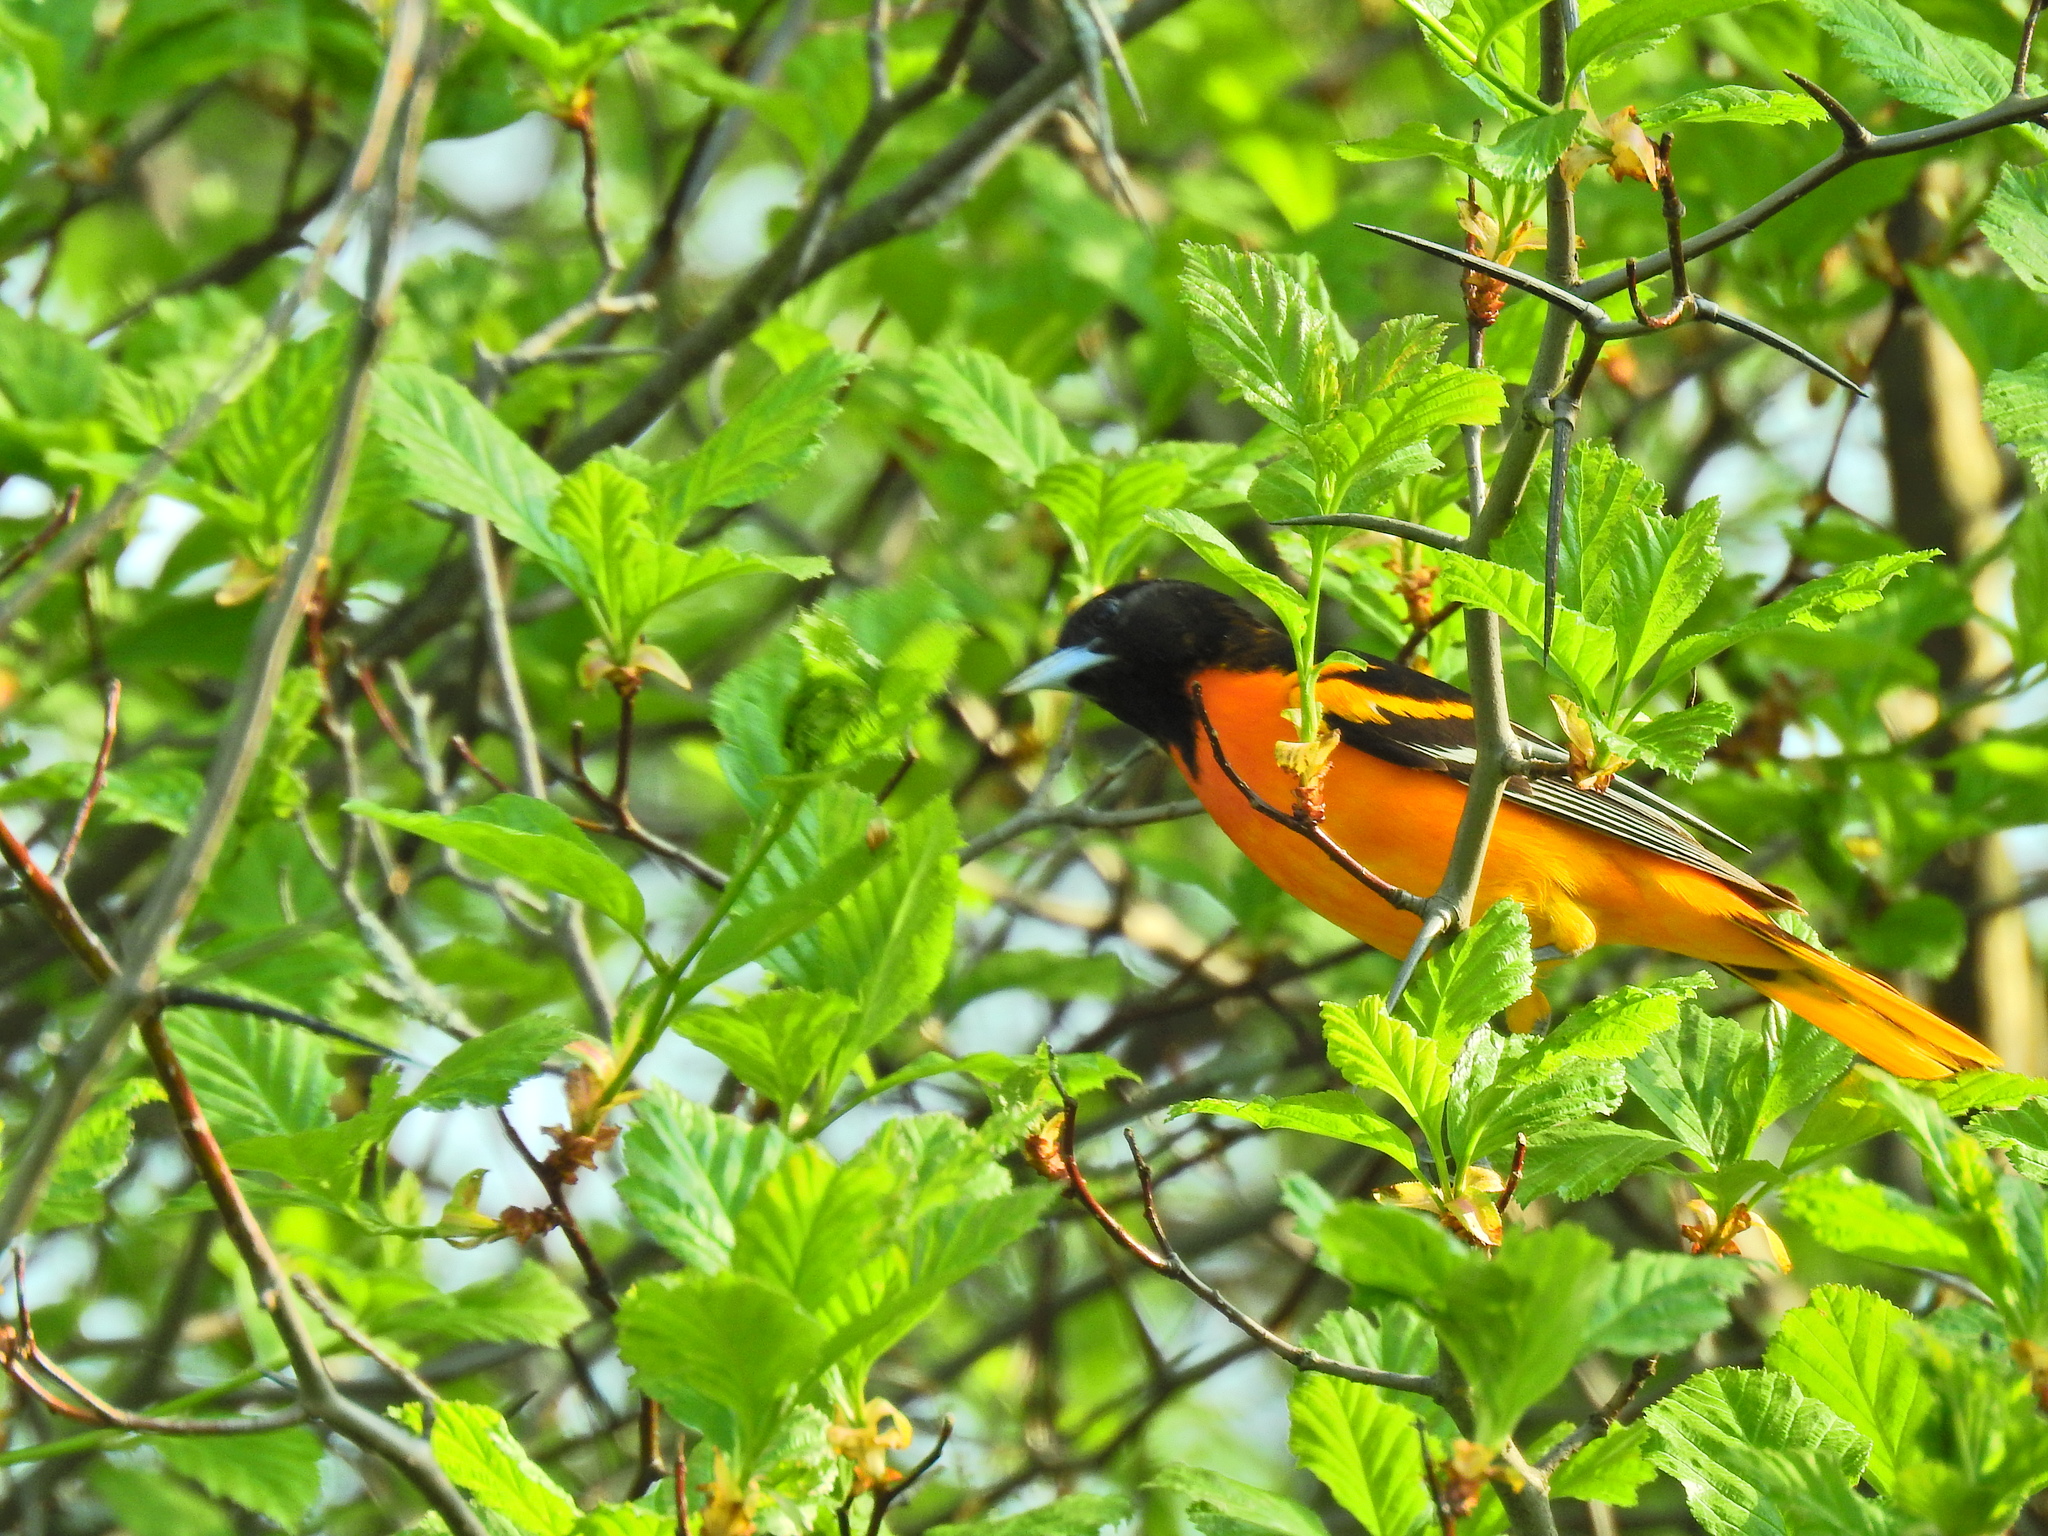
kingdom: Animalia
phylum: Chordata
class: Aves
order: Passeriformes
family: Icteridae
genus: Icterus
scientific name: Icterus galbula
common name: Baltimore oriole
